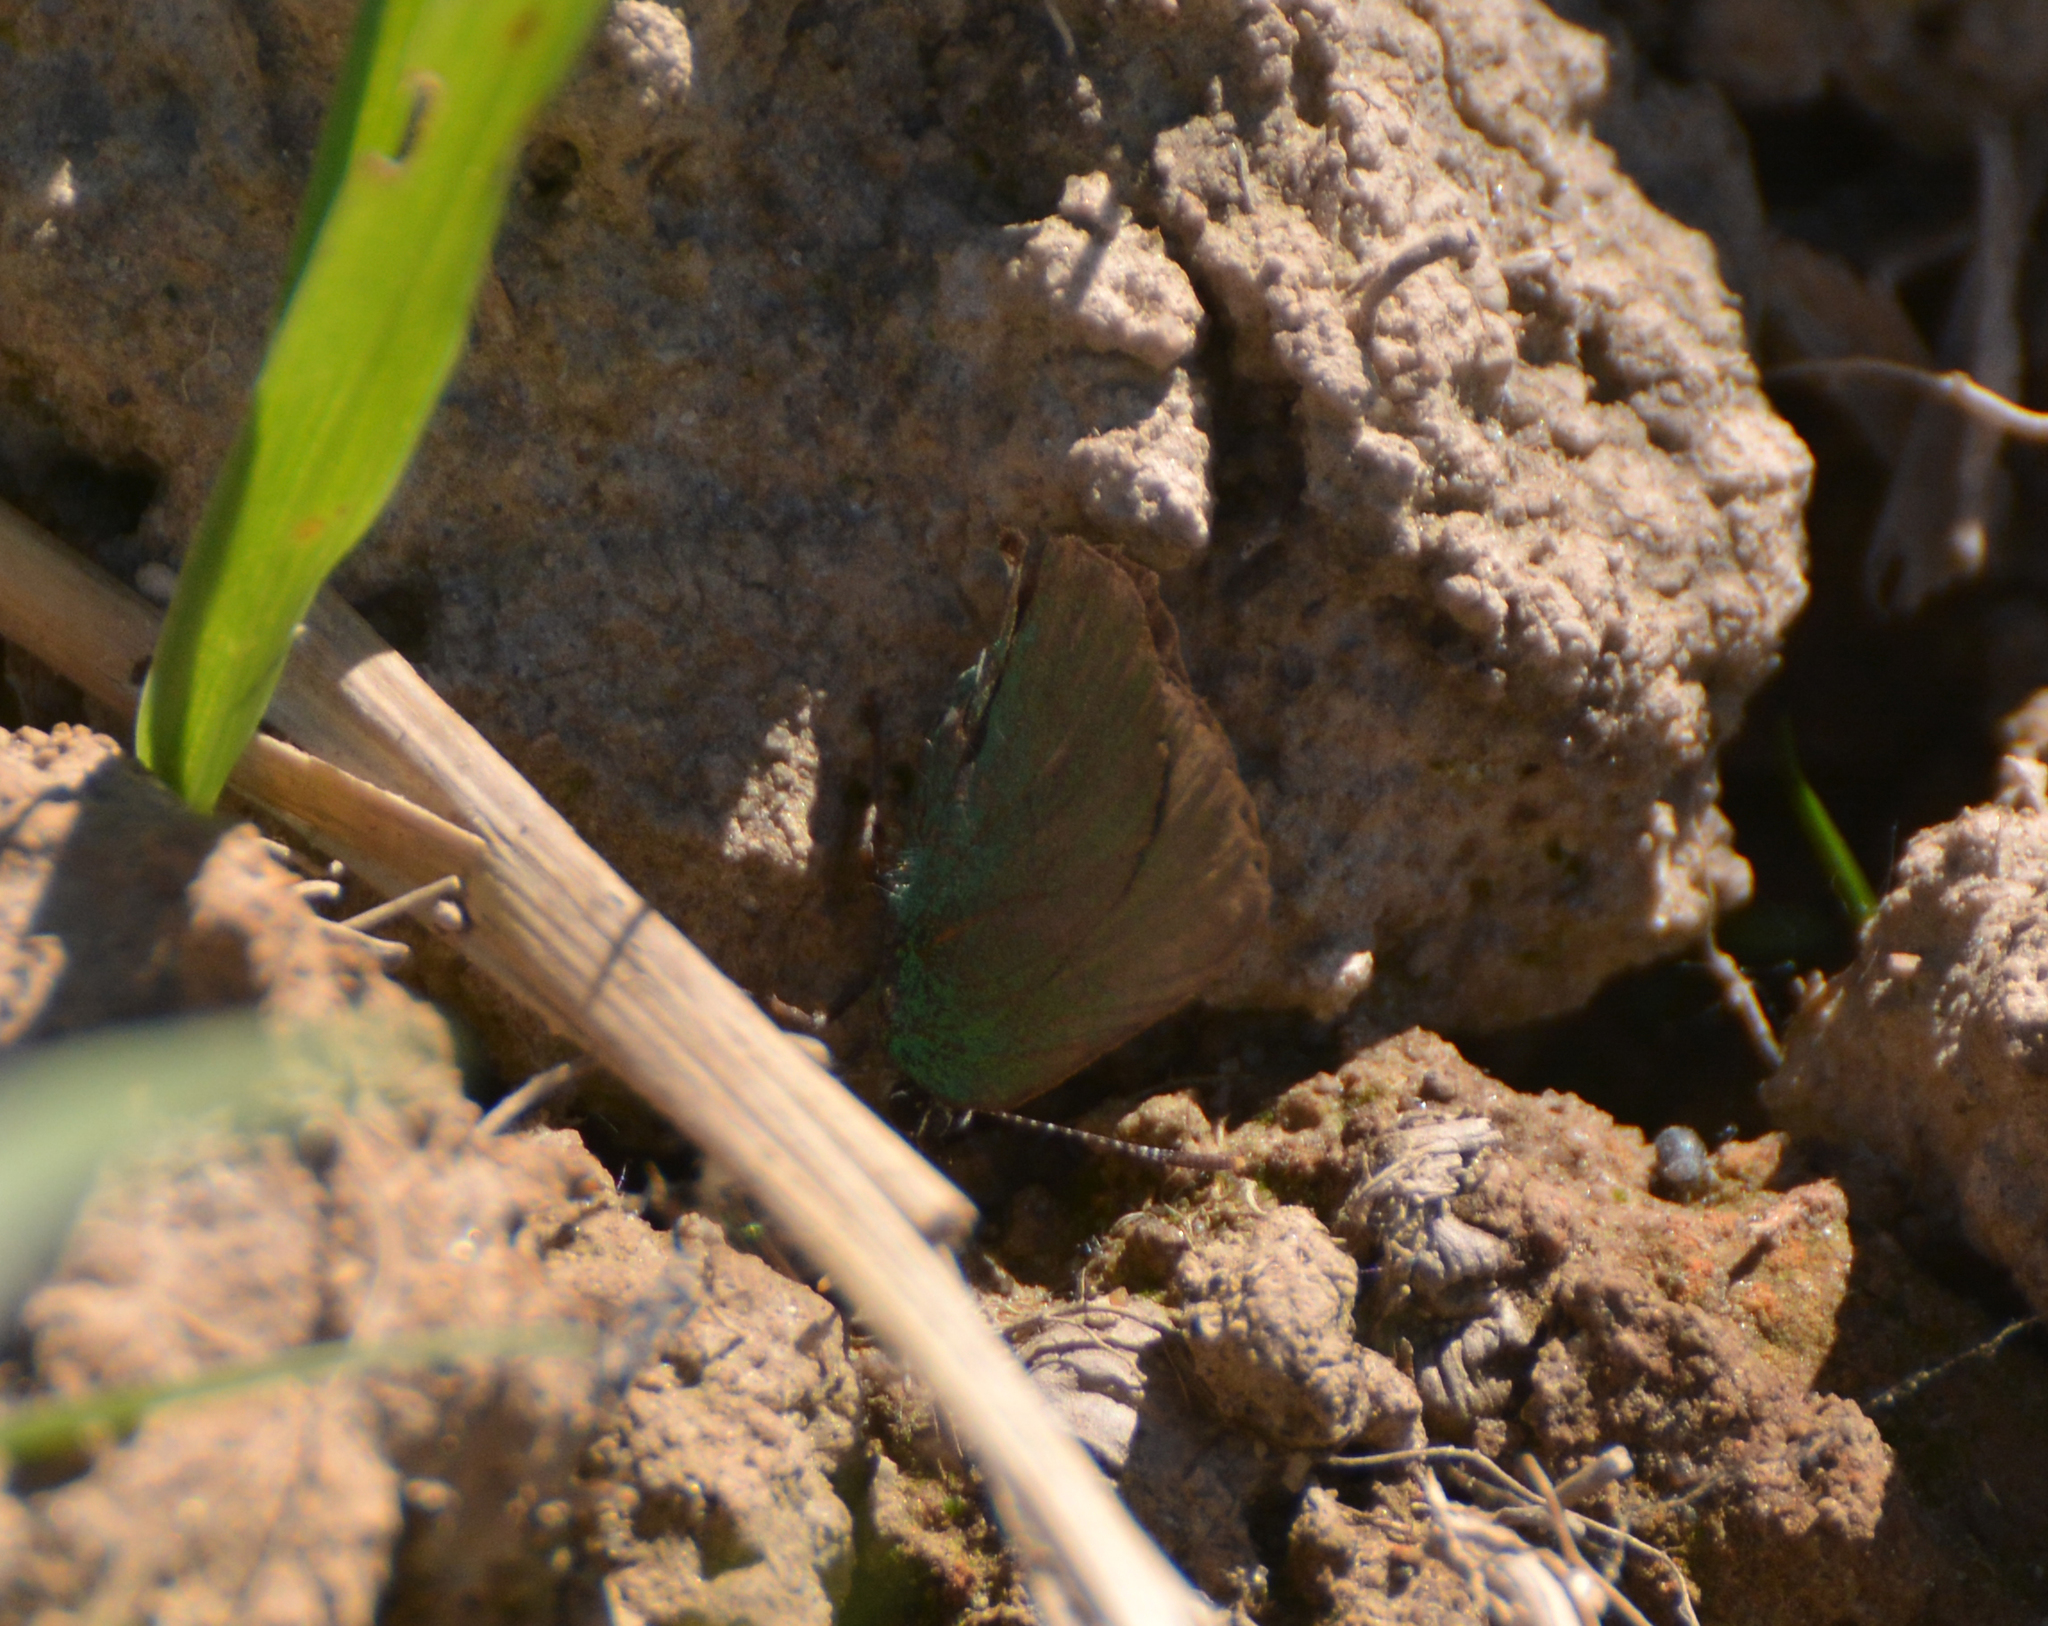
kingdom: Animalia
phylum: Arthropoda
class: Insecta
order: Lepidoptera
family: Lycaenidae
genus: Callophrys
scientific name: Callophrys rubi
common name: Green hairstreak
